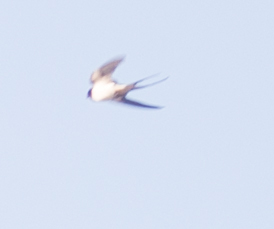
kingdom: Animalia
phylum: Chordata
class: Aves
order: Passeriformes
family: Hirundinidae
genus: Hirundo
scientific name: Hirundo rustica
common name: Barn swallow
